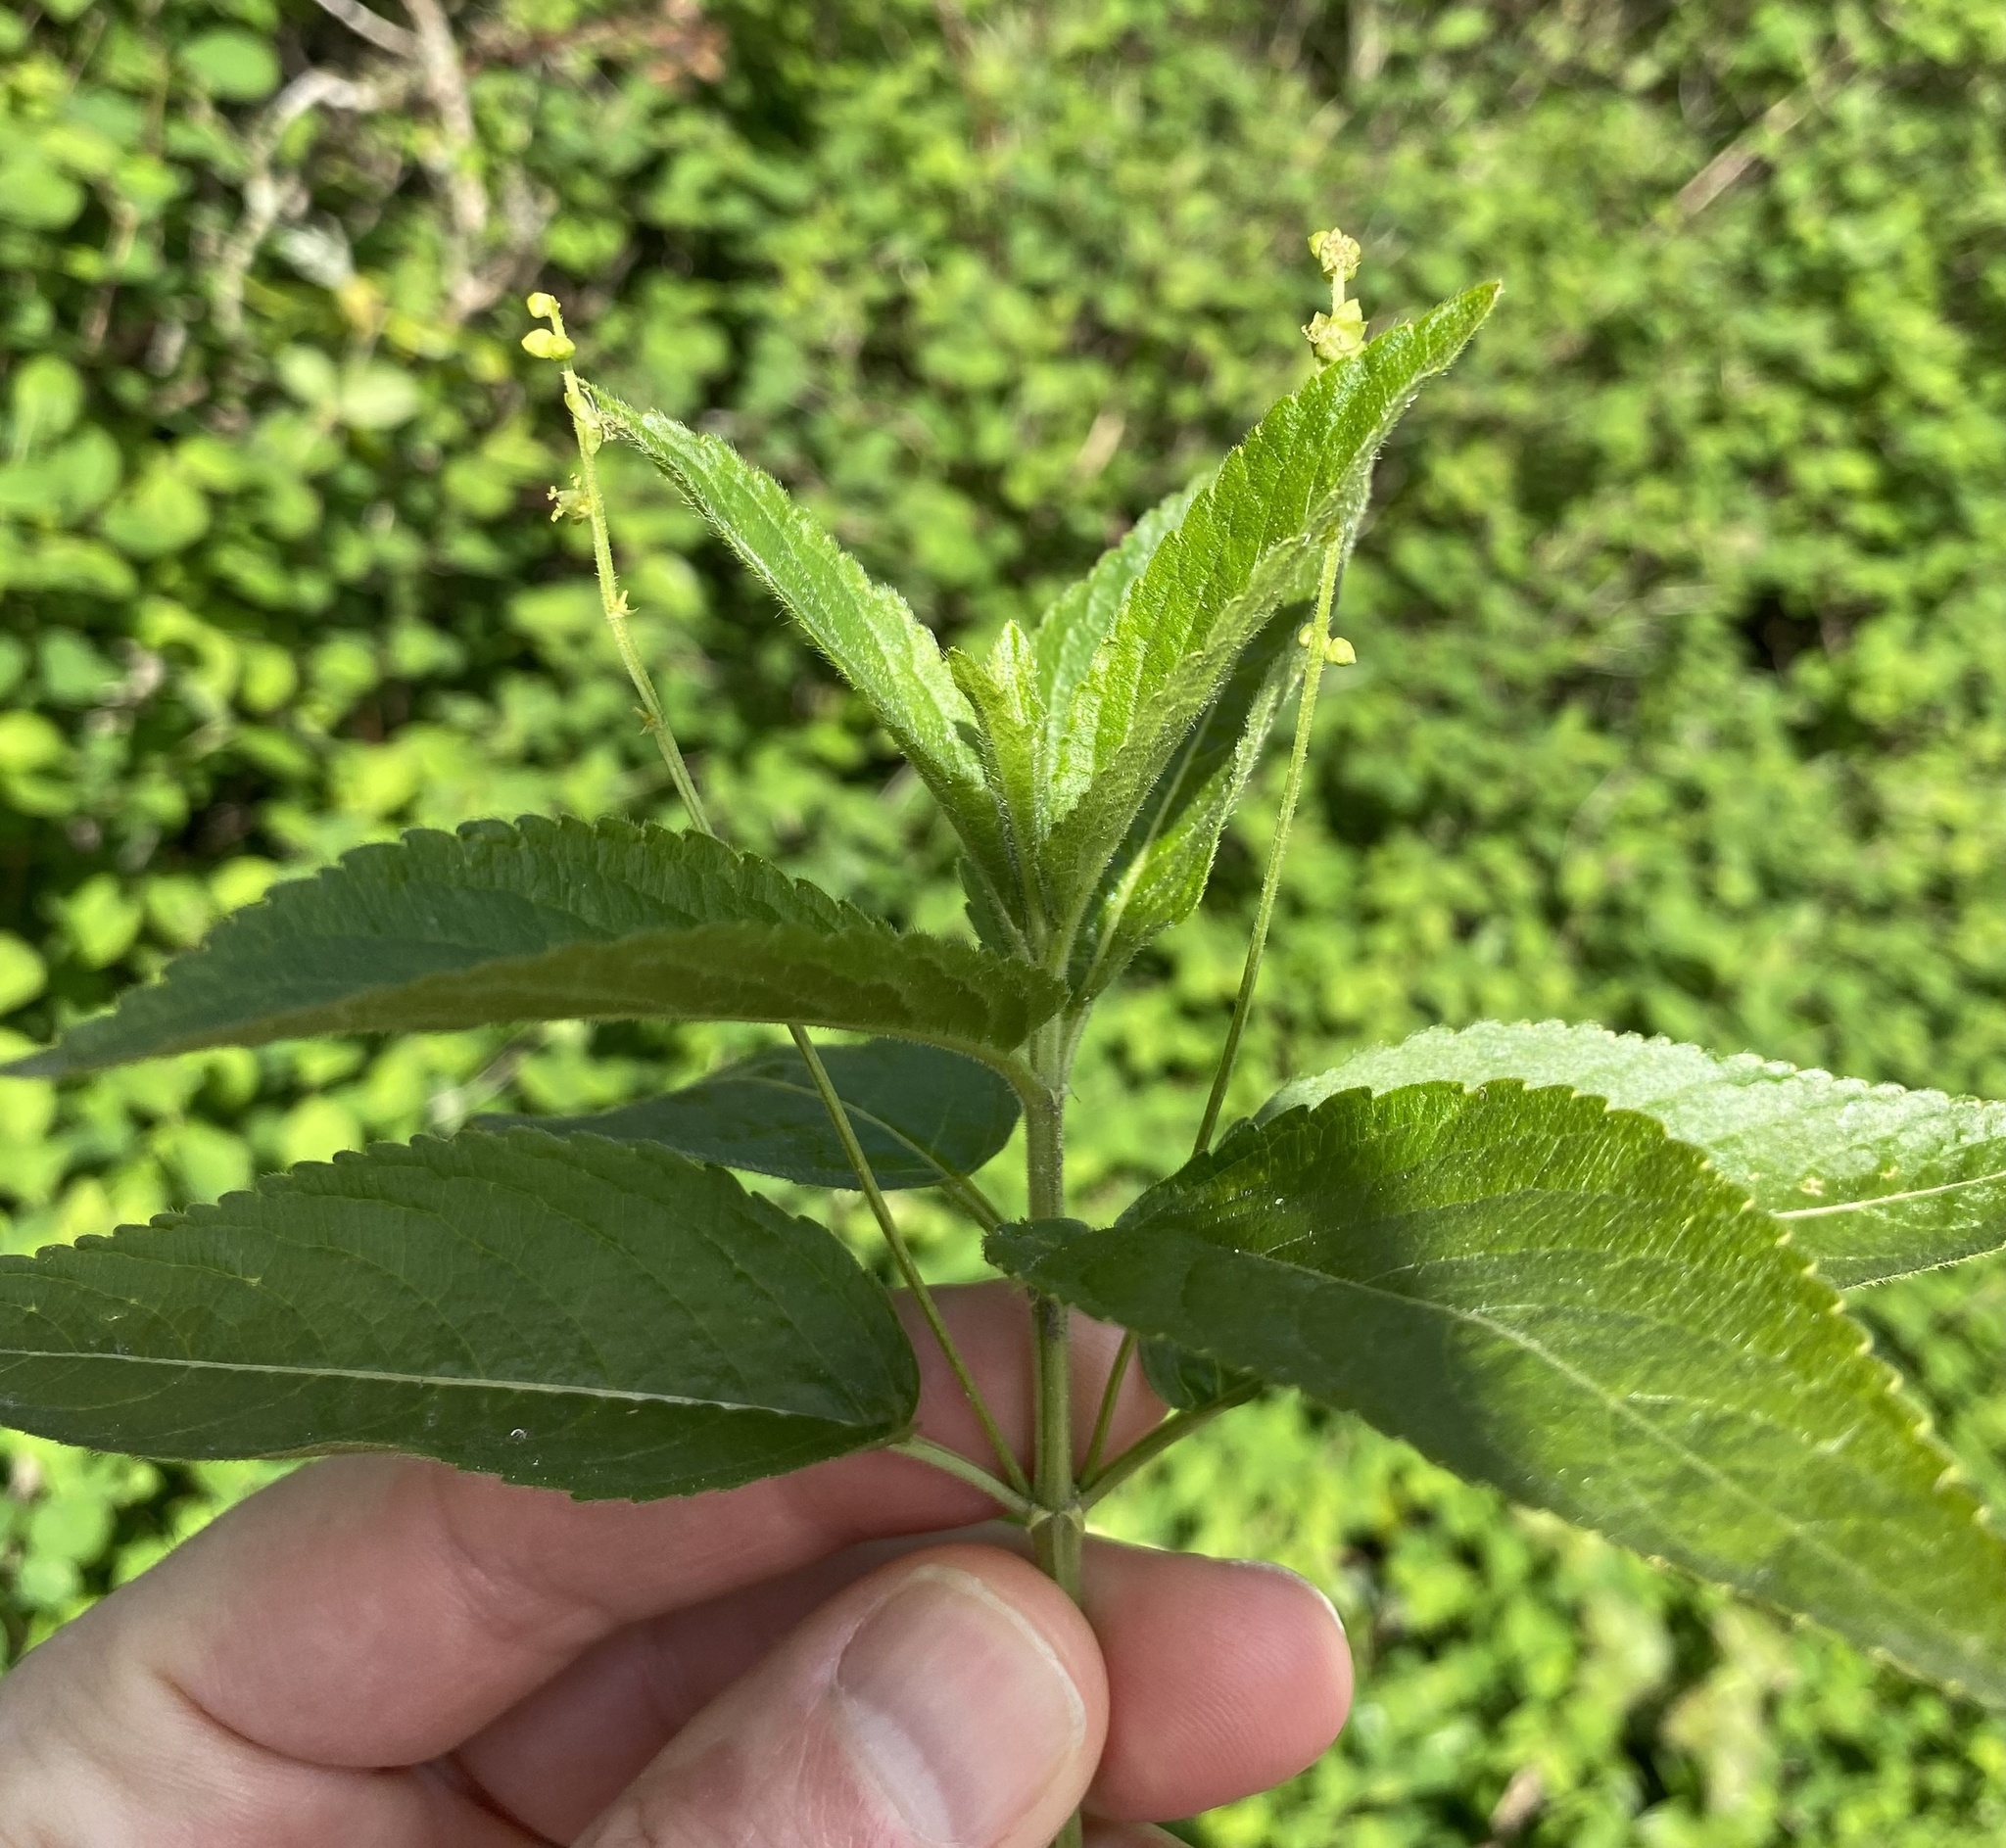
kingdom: Plantae
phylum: Tracheophyta
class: Magnoliopsida
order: Malpighiales
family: Euphorbiaceae
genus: Mercurialis
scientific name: Mercurialis perennis
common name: Dog mercury
